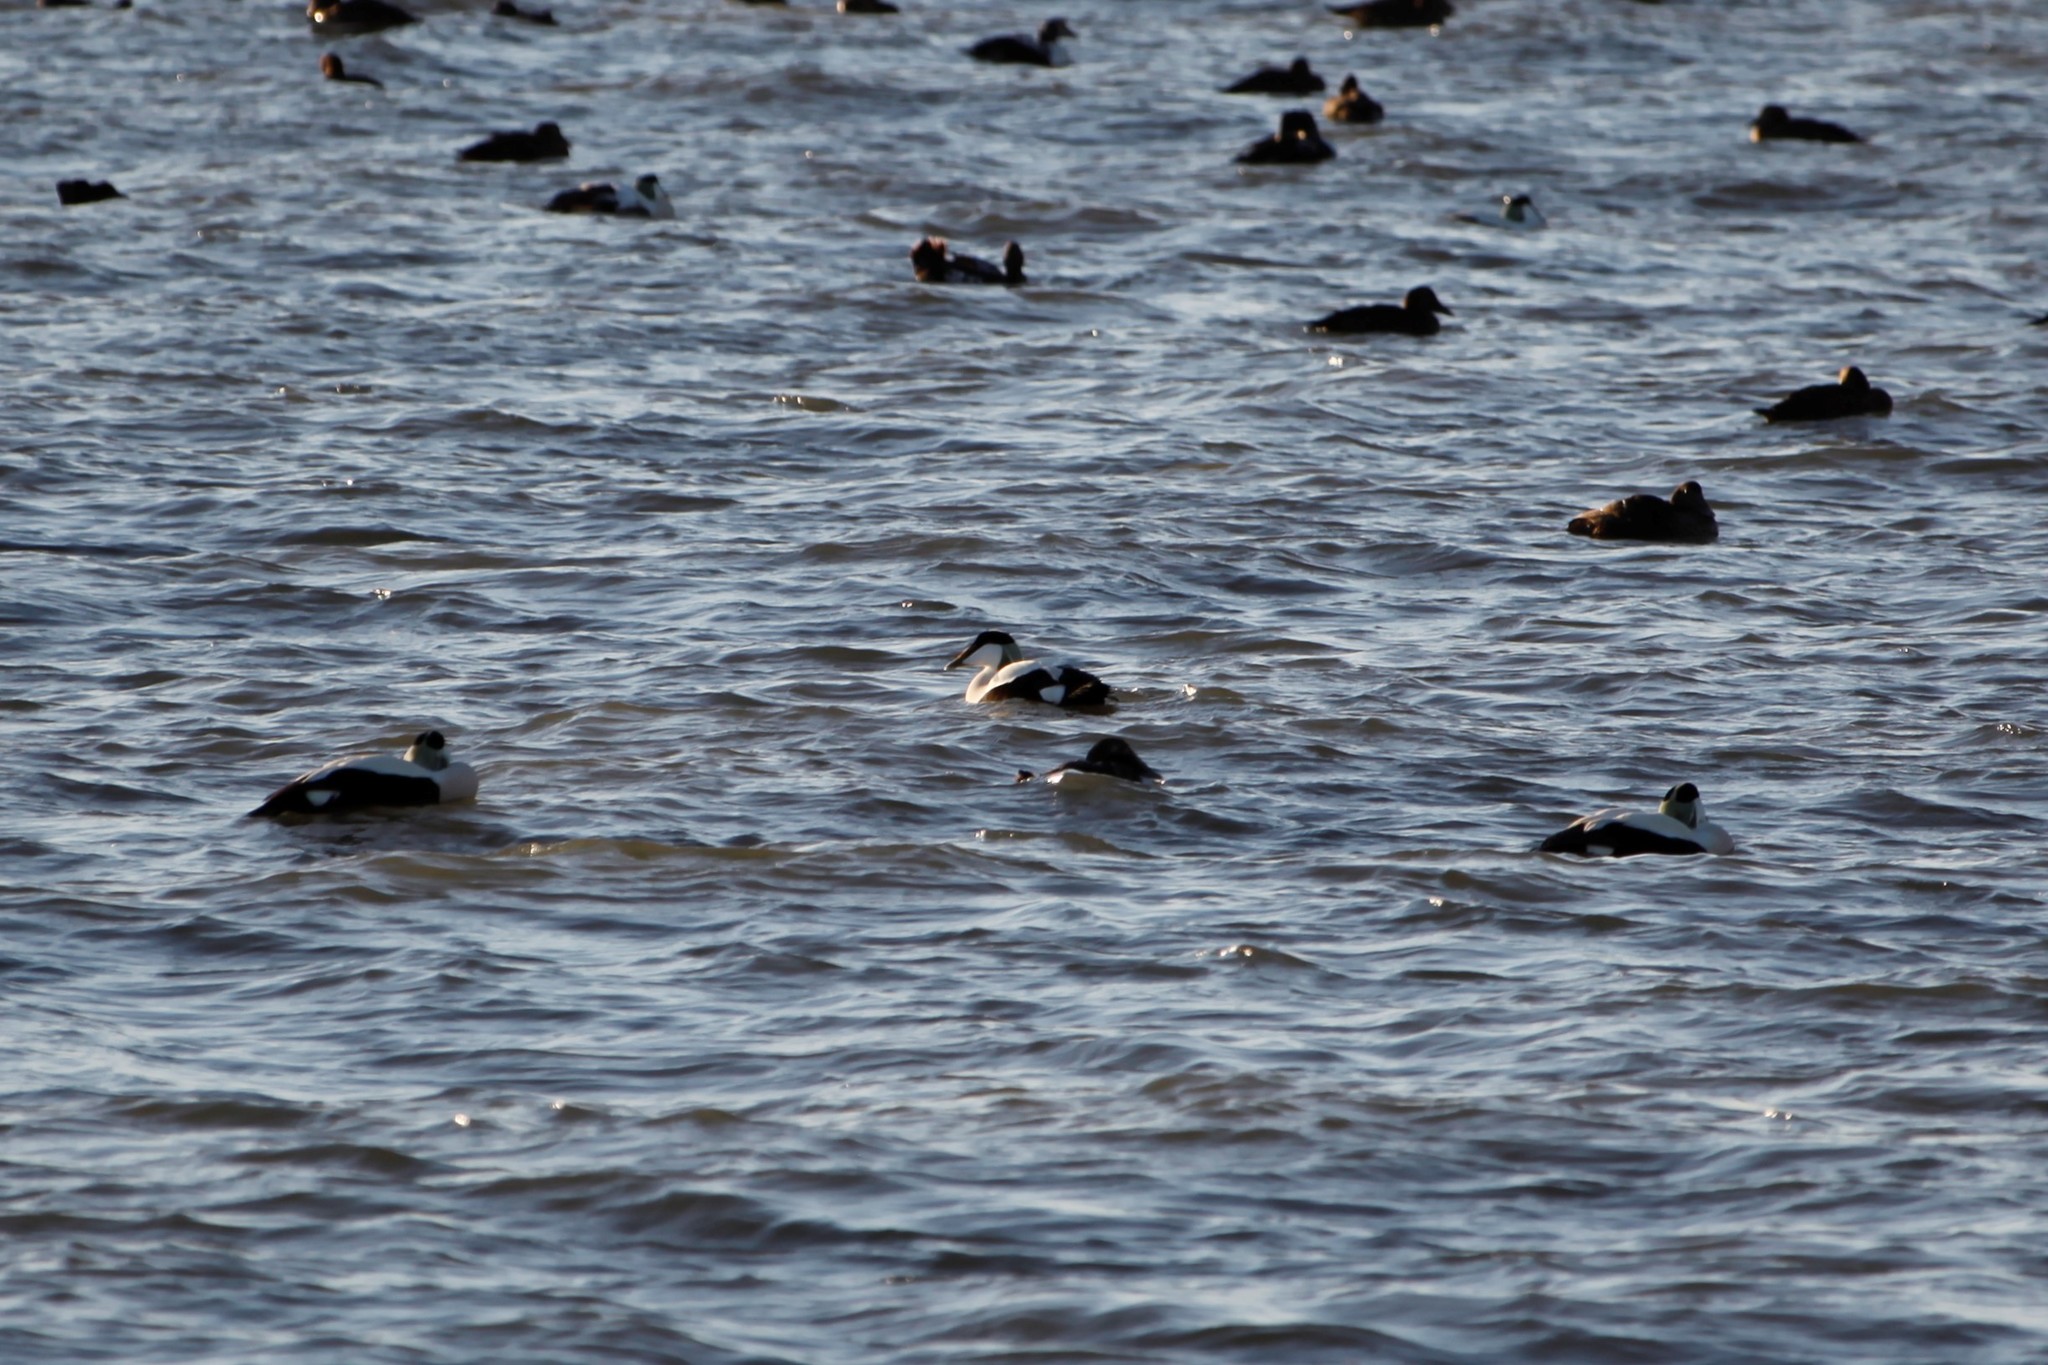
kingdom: Animalia
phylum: Chordata
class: Aves
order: Anseriformes
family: Anatidae
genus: Somateria
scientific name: Somateria mollissima
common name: Common eider
